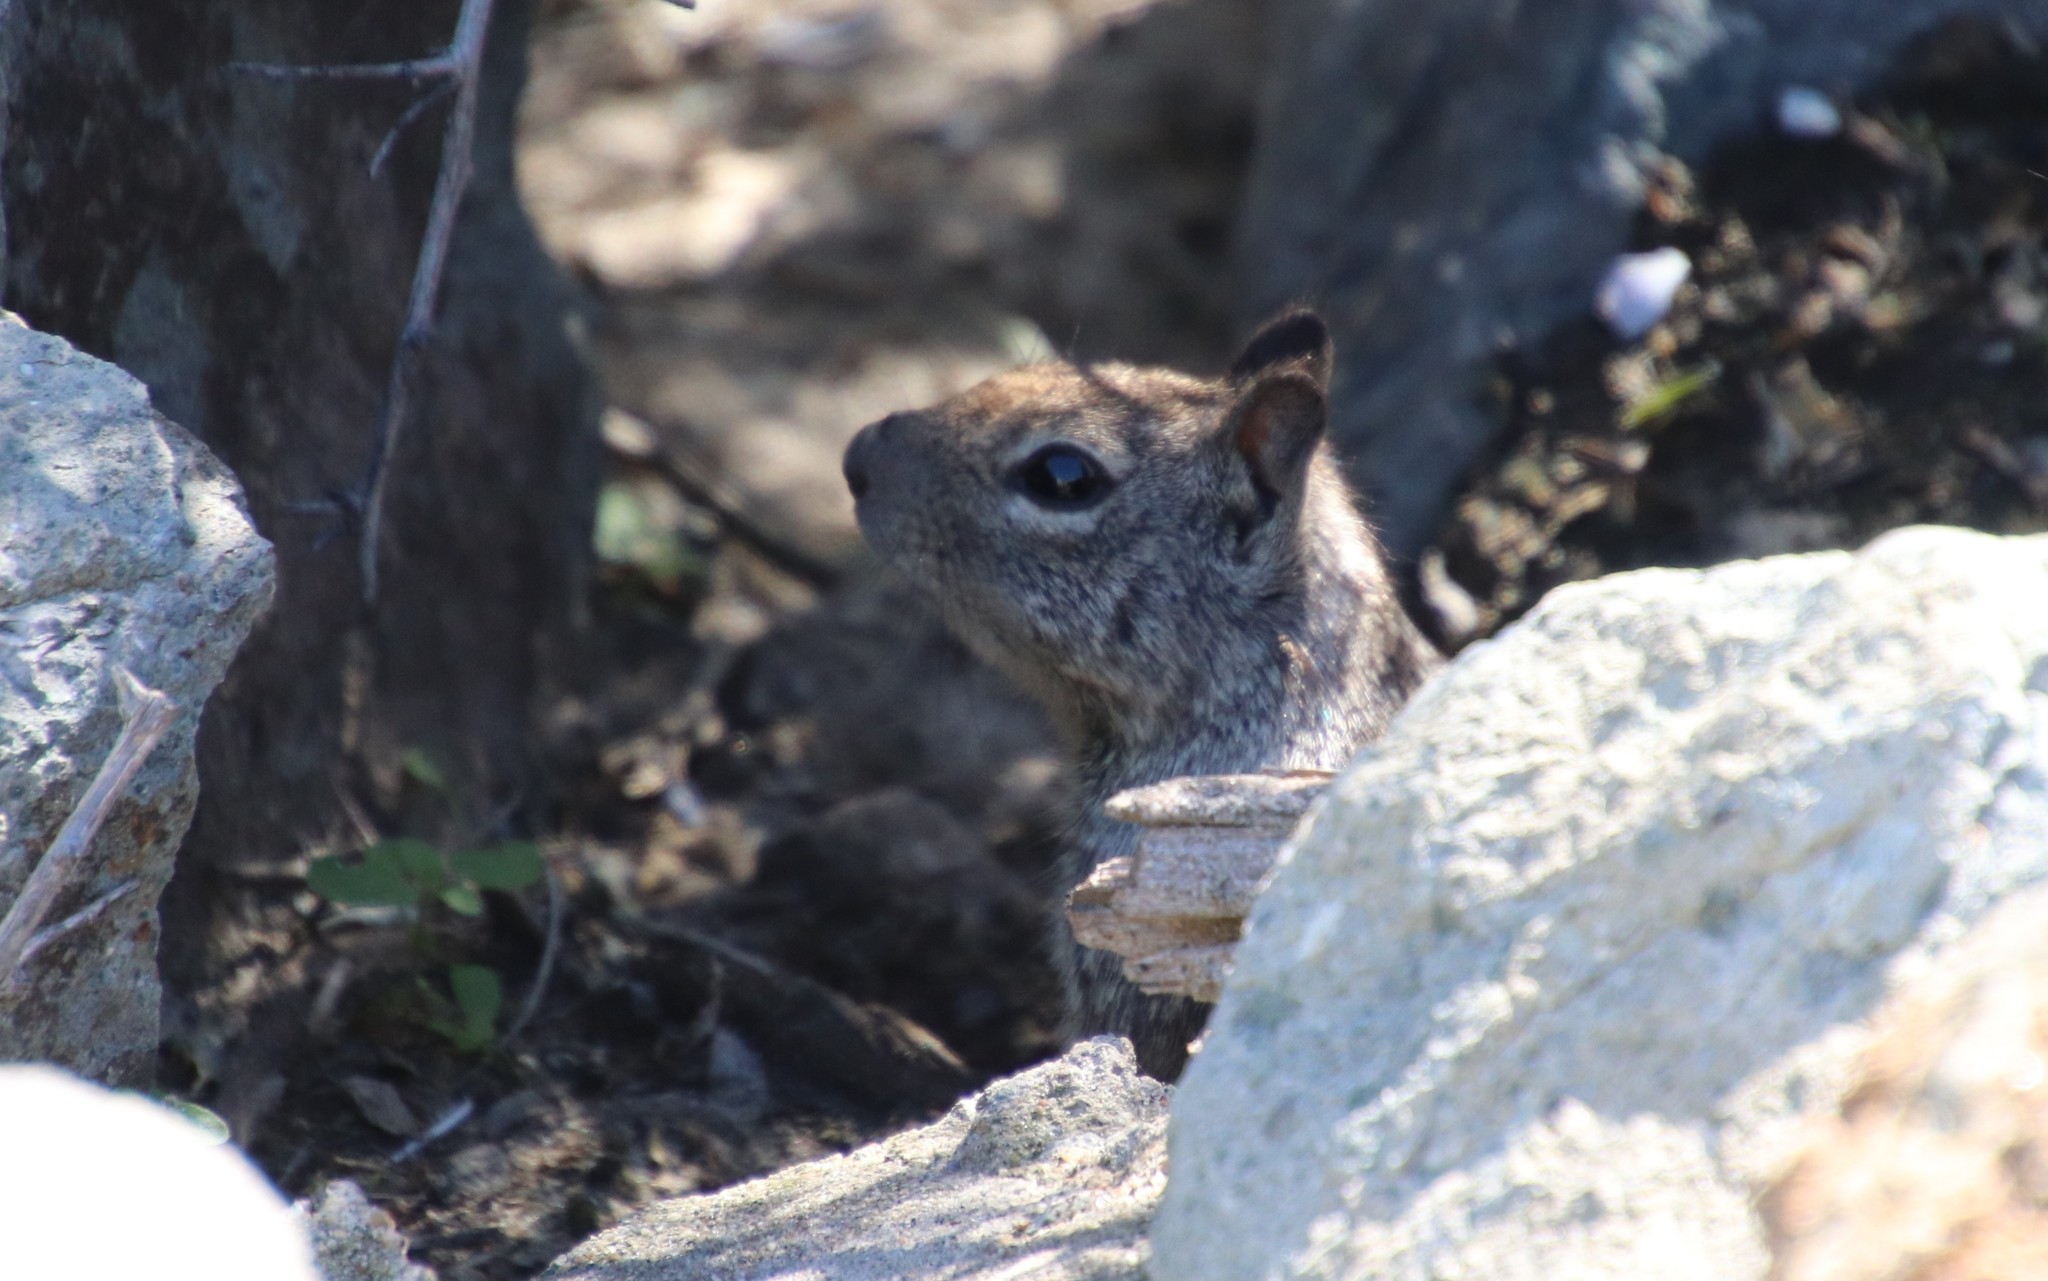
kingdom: Animalia
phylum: Chordata
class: Mammalia
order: Rodentia
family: Sciuridae
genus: Otospermophilus
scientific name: Otospermophilus beecheyi
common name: California ground squirrel
